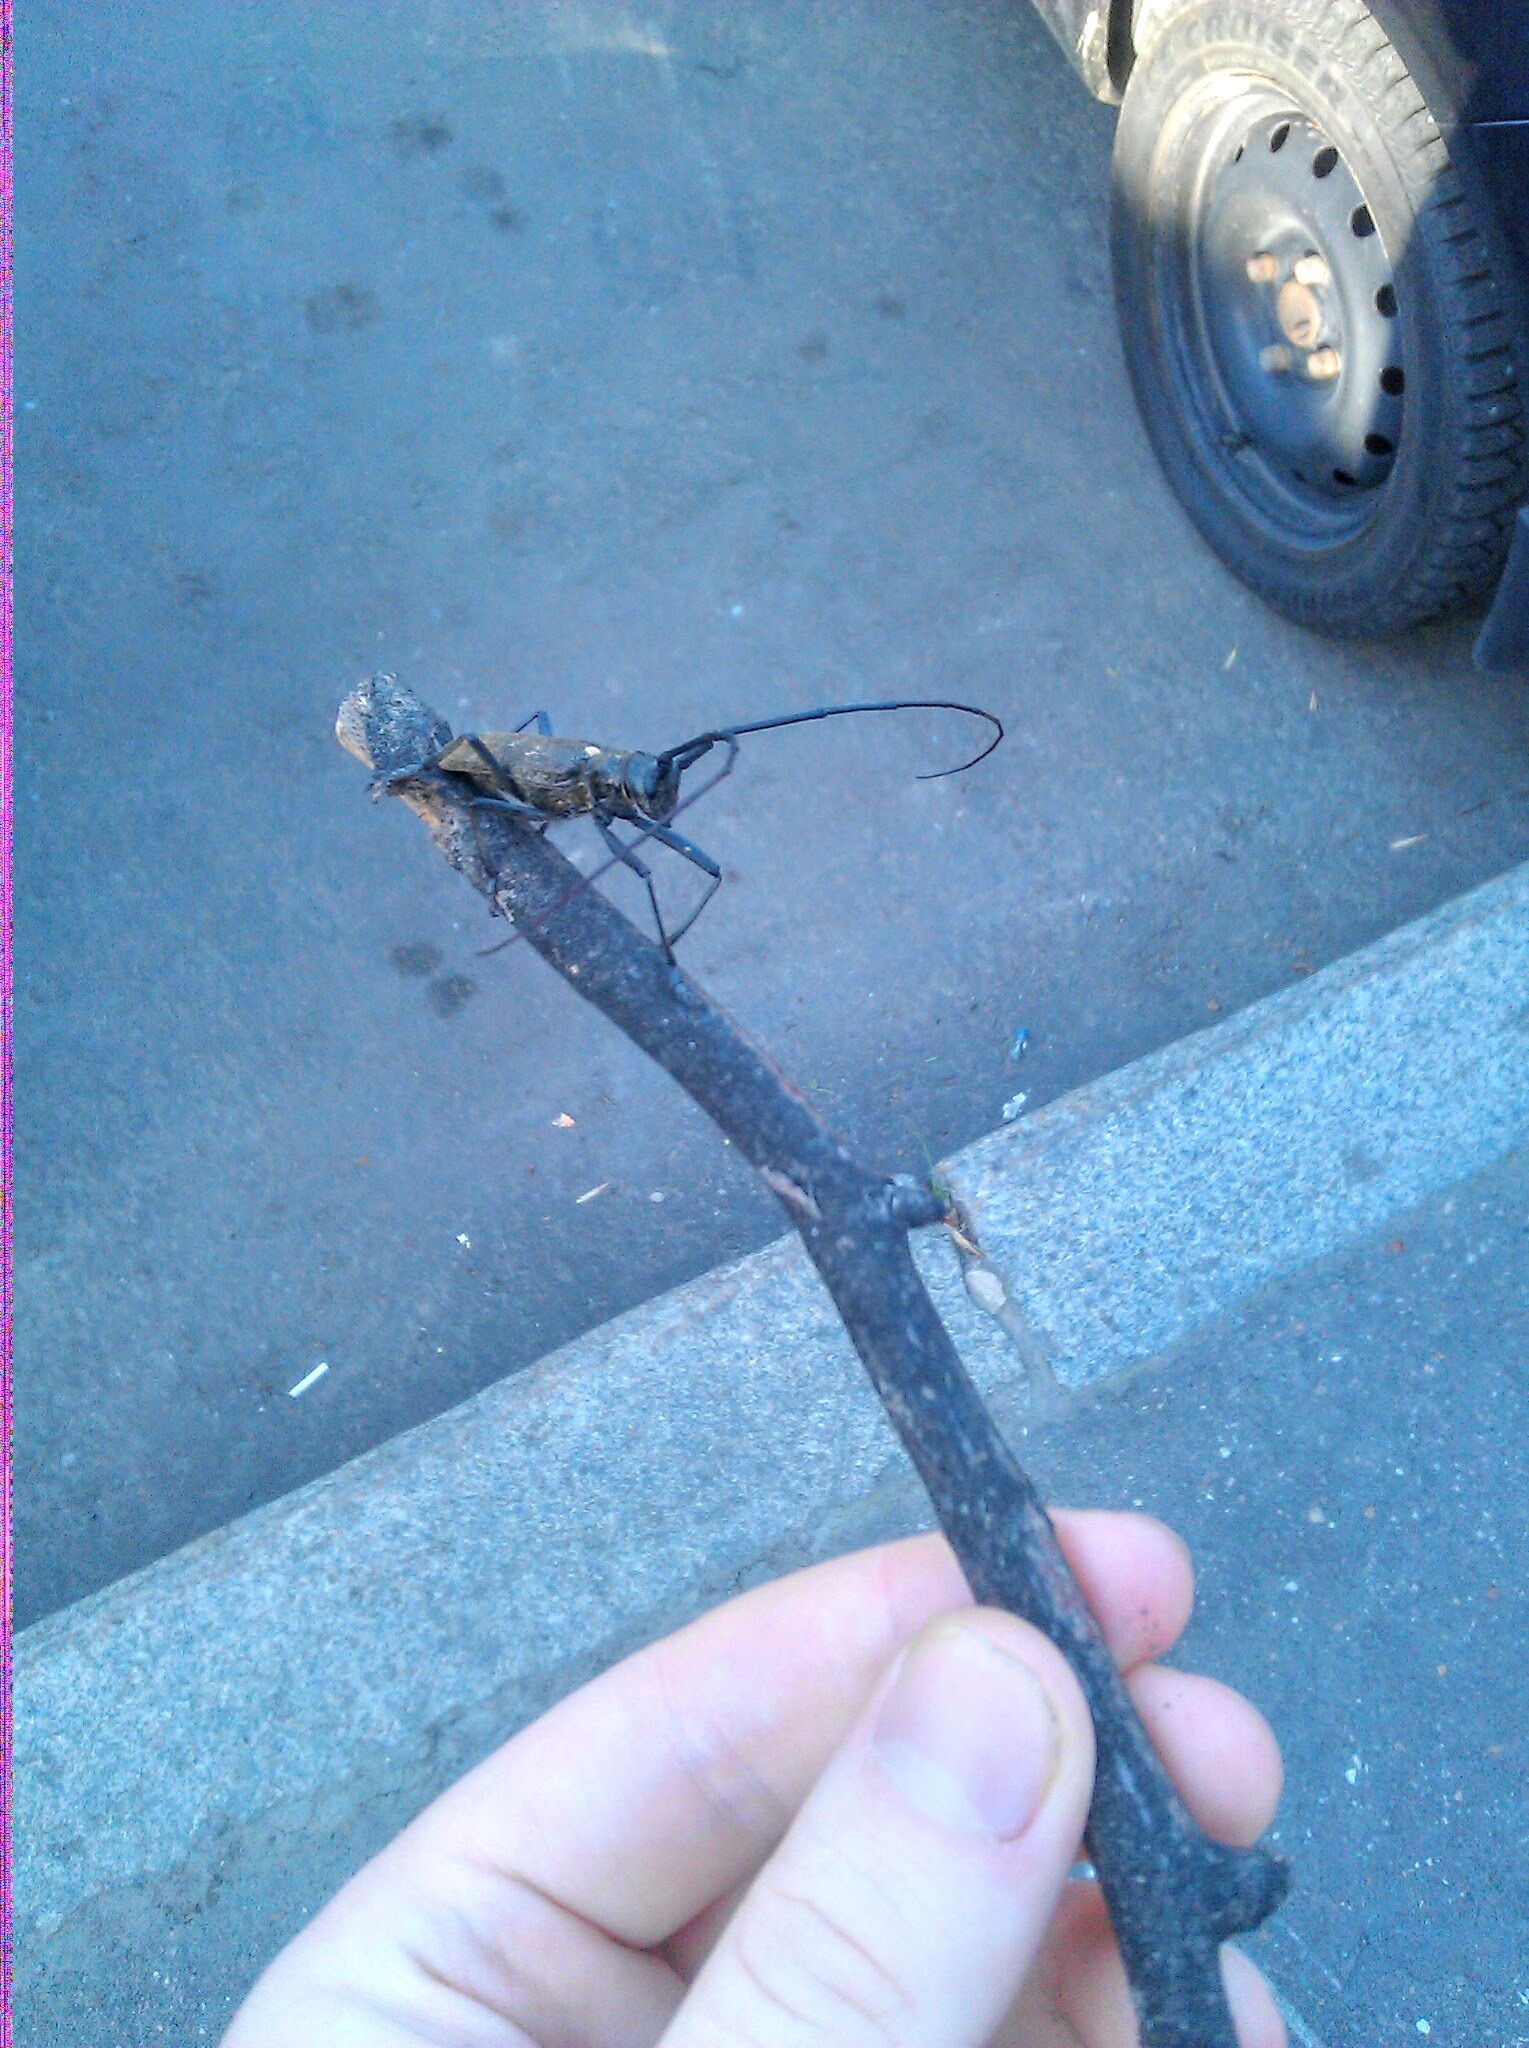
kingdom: Animalia
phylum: Arthropoda
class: Insecta
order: Coleoptera
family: Cerambycidae
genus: Monochamus
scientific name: Monochamus sartor
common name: Pine sawyer
